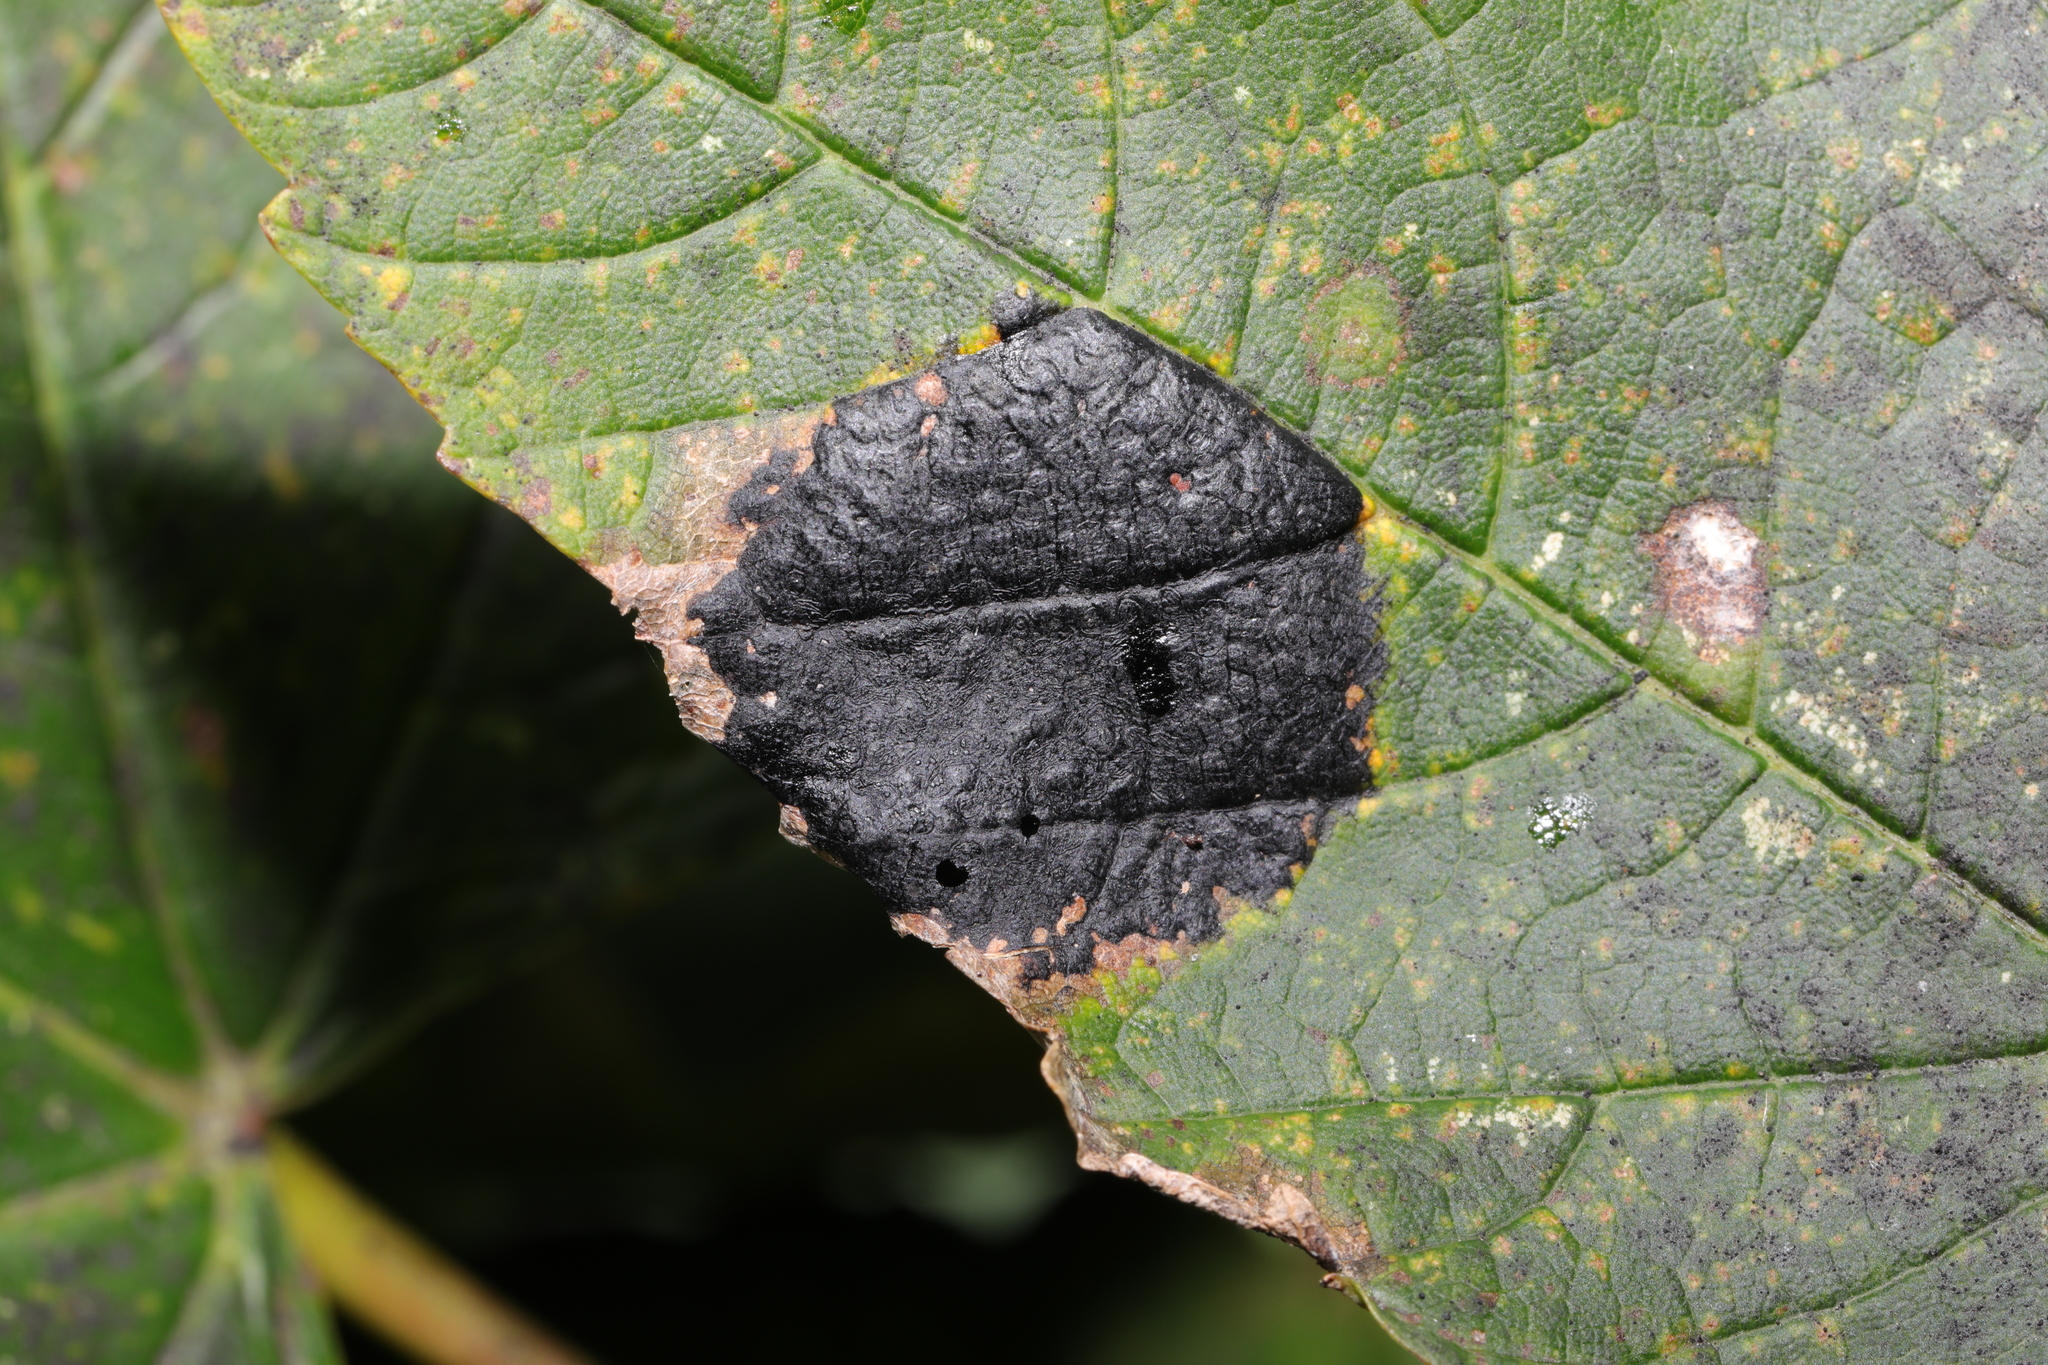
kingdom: Fungi
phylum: Ascomycota
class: Leotiomycetes
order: Rhytismatales
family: Rhytismataceae
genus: Rhytisma
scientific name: Rhytisma acerinum
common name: European tar spot
